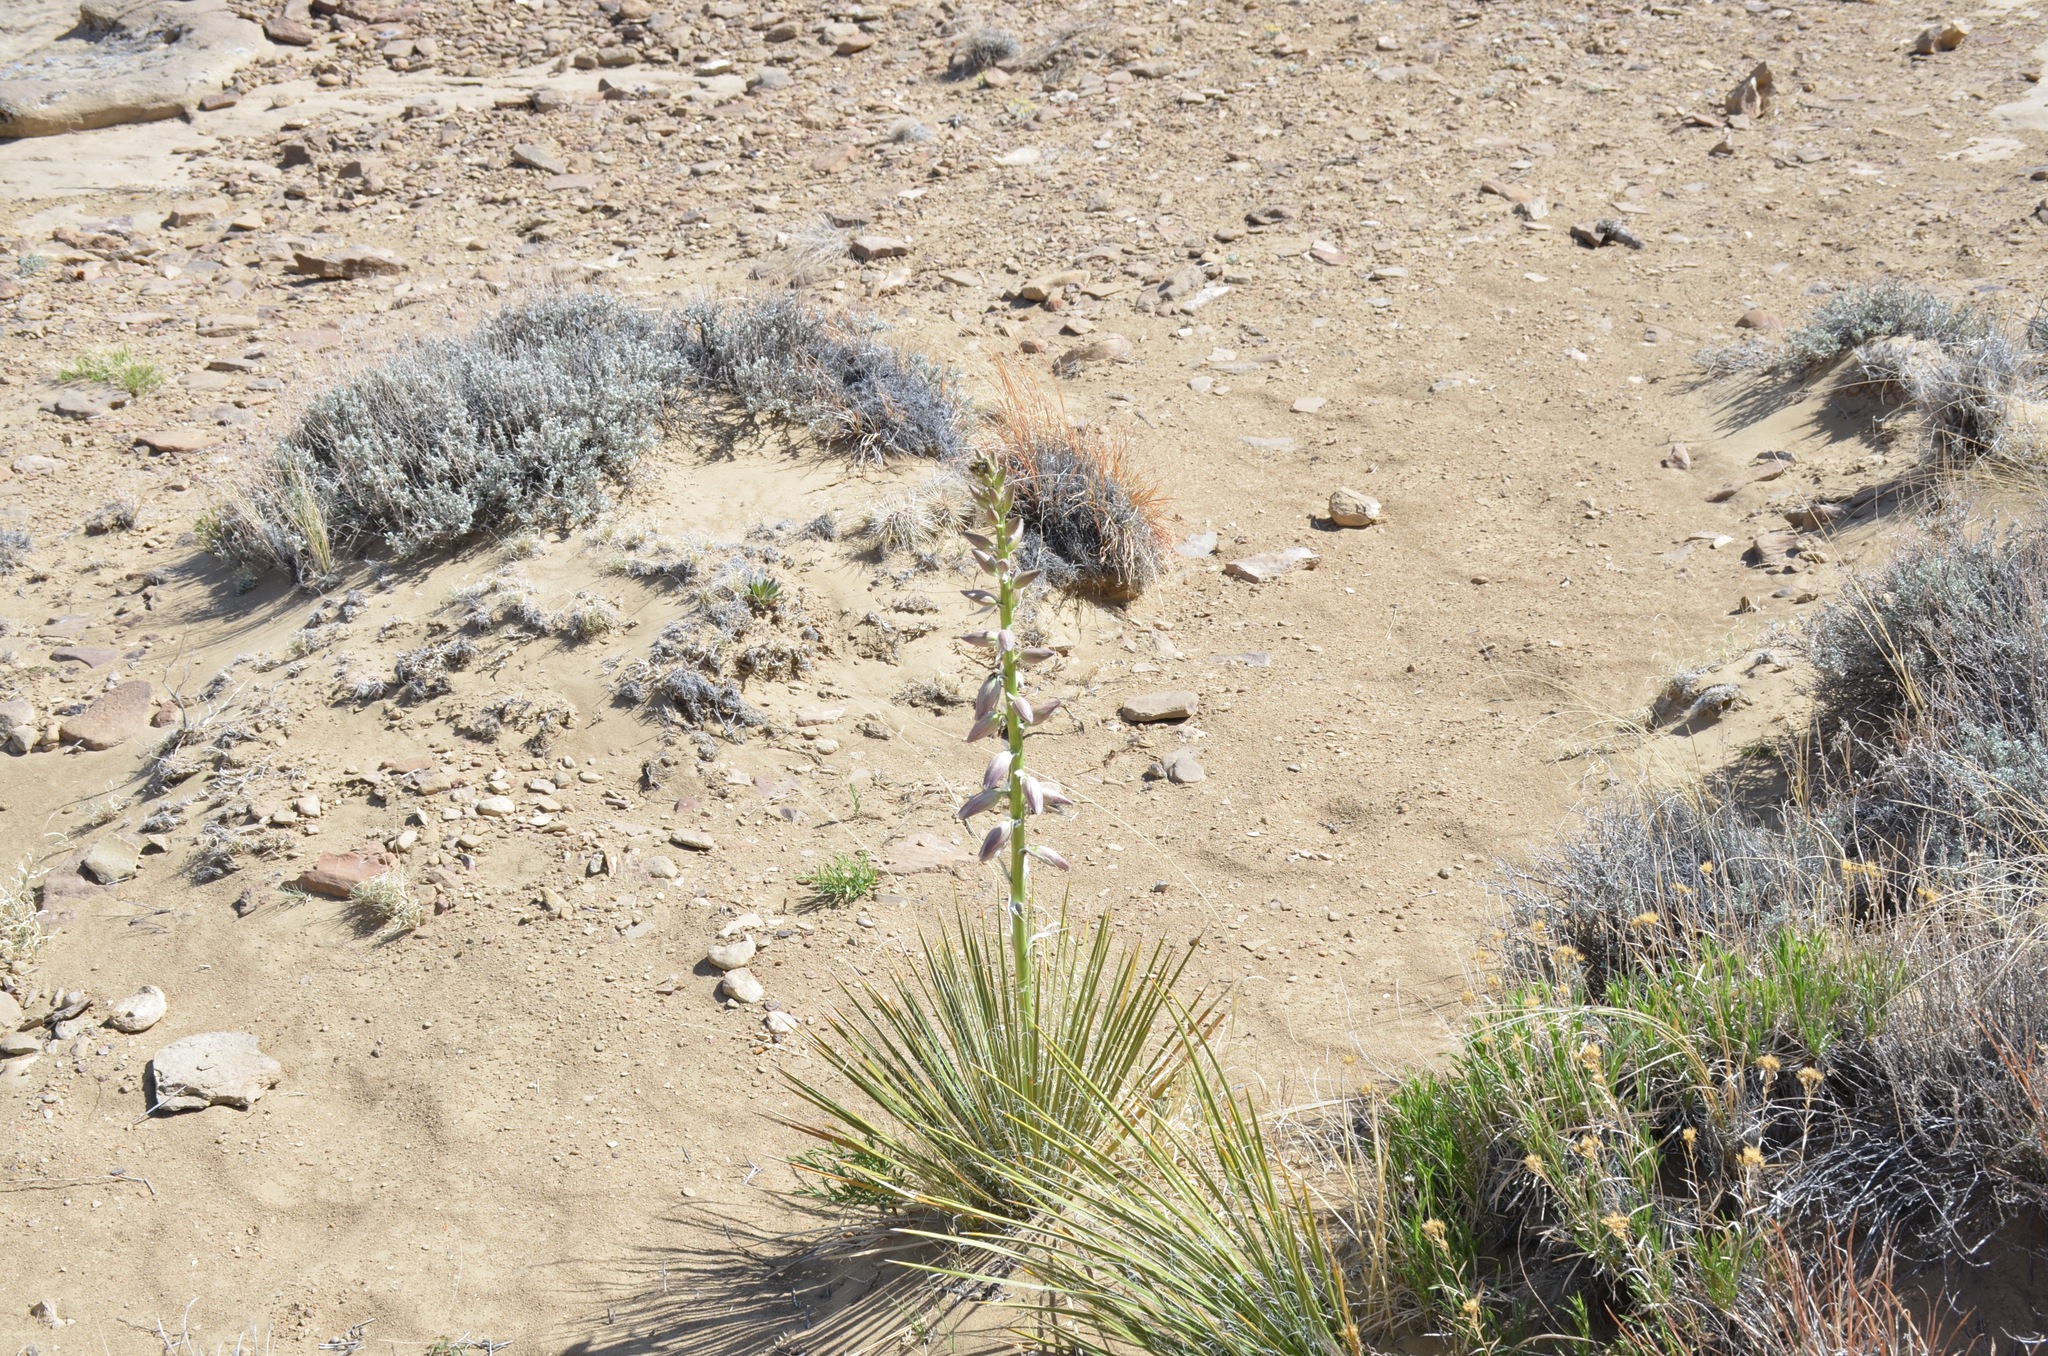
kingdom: Plantae
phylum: Tracheophyta
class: Liliopsida
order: Asparagales
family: Asparagaceae
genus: Yucca
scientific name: Yucca angustissima
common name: Narrowleaf yucca
